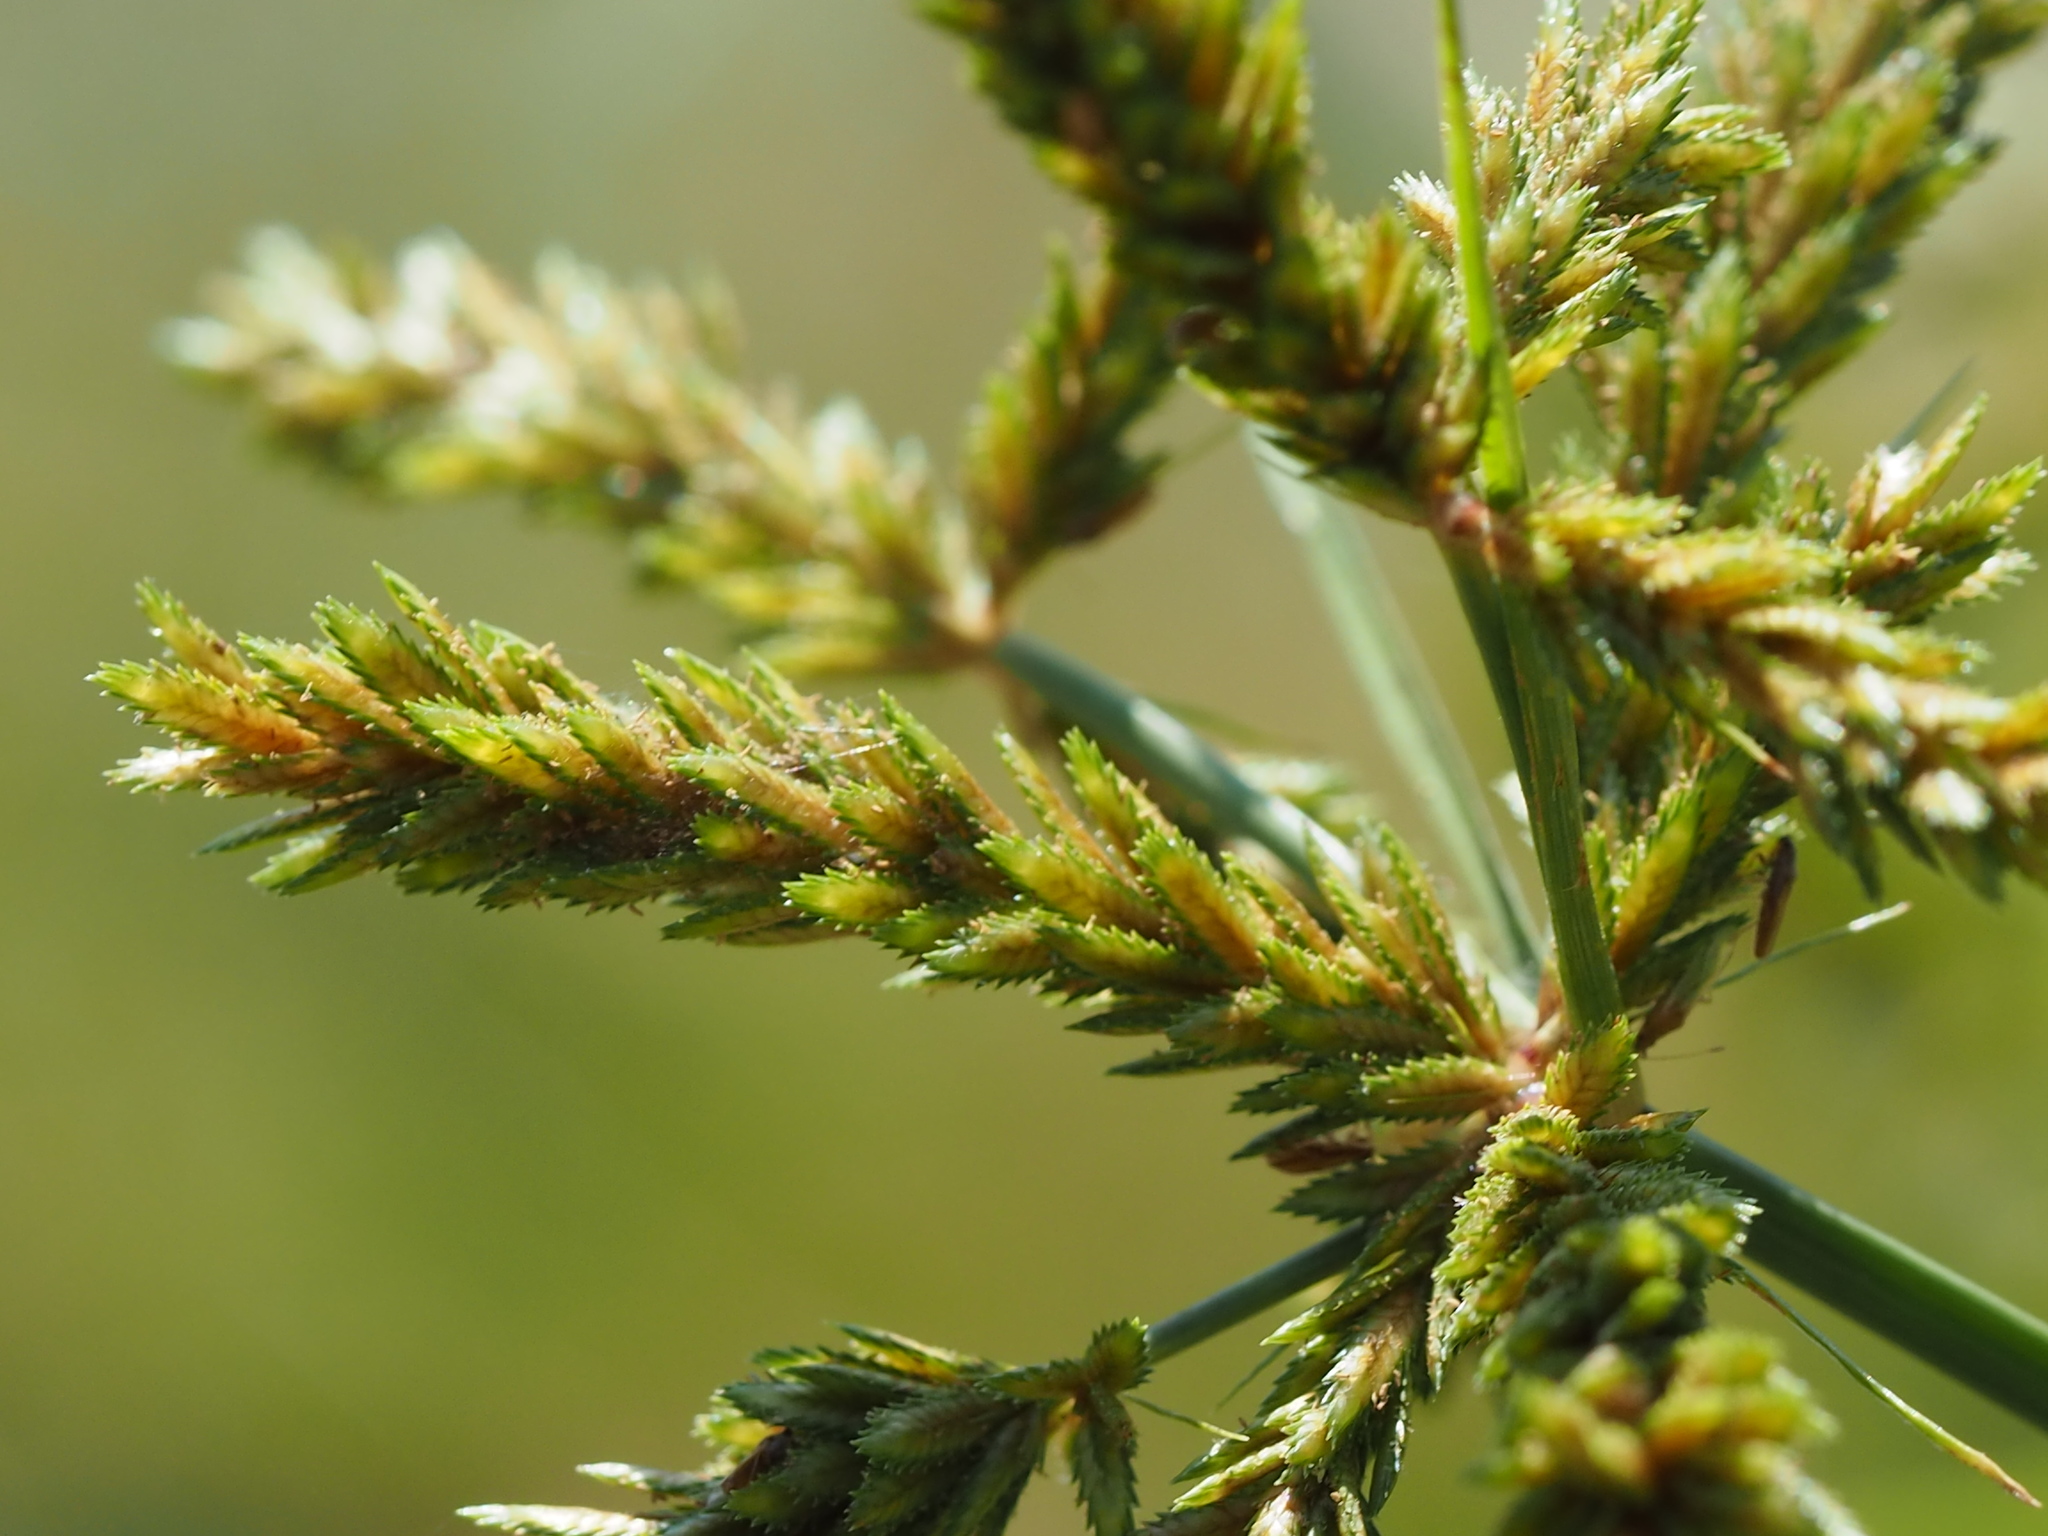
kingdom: Plantae
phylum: Tracheophyta
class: Liliopsida
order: Poales
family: Cyperaceae
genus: Cyperus
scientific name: Cyperus imbricatus
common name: Shingle flatsedge
